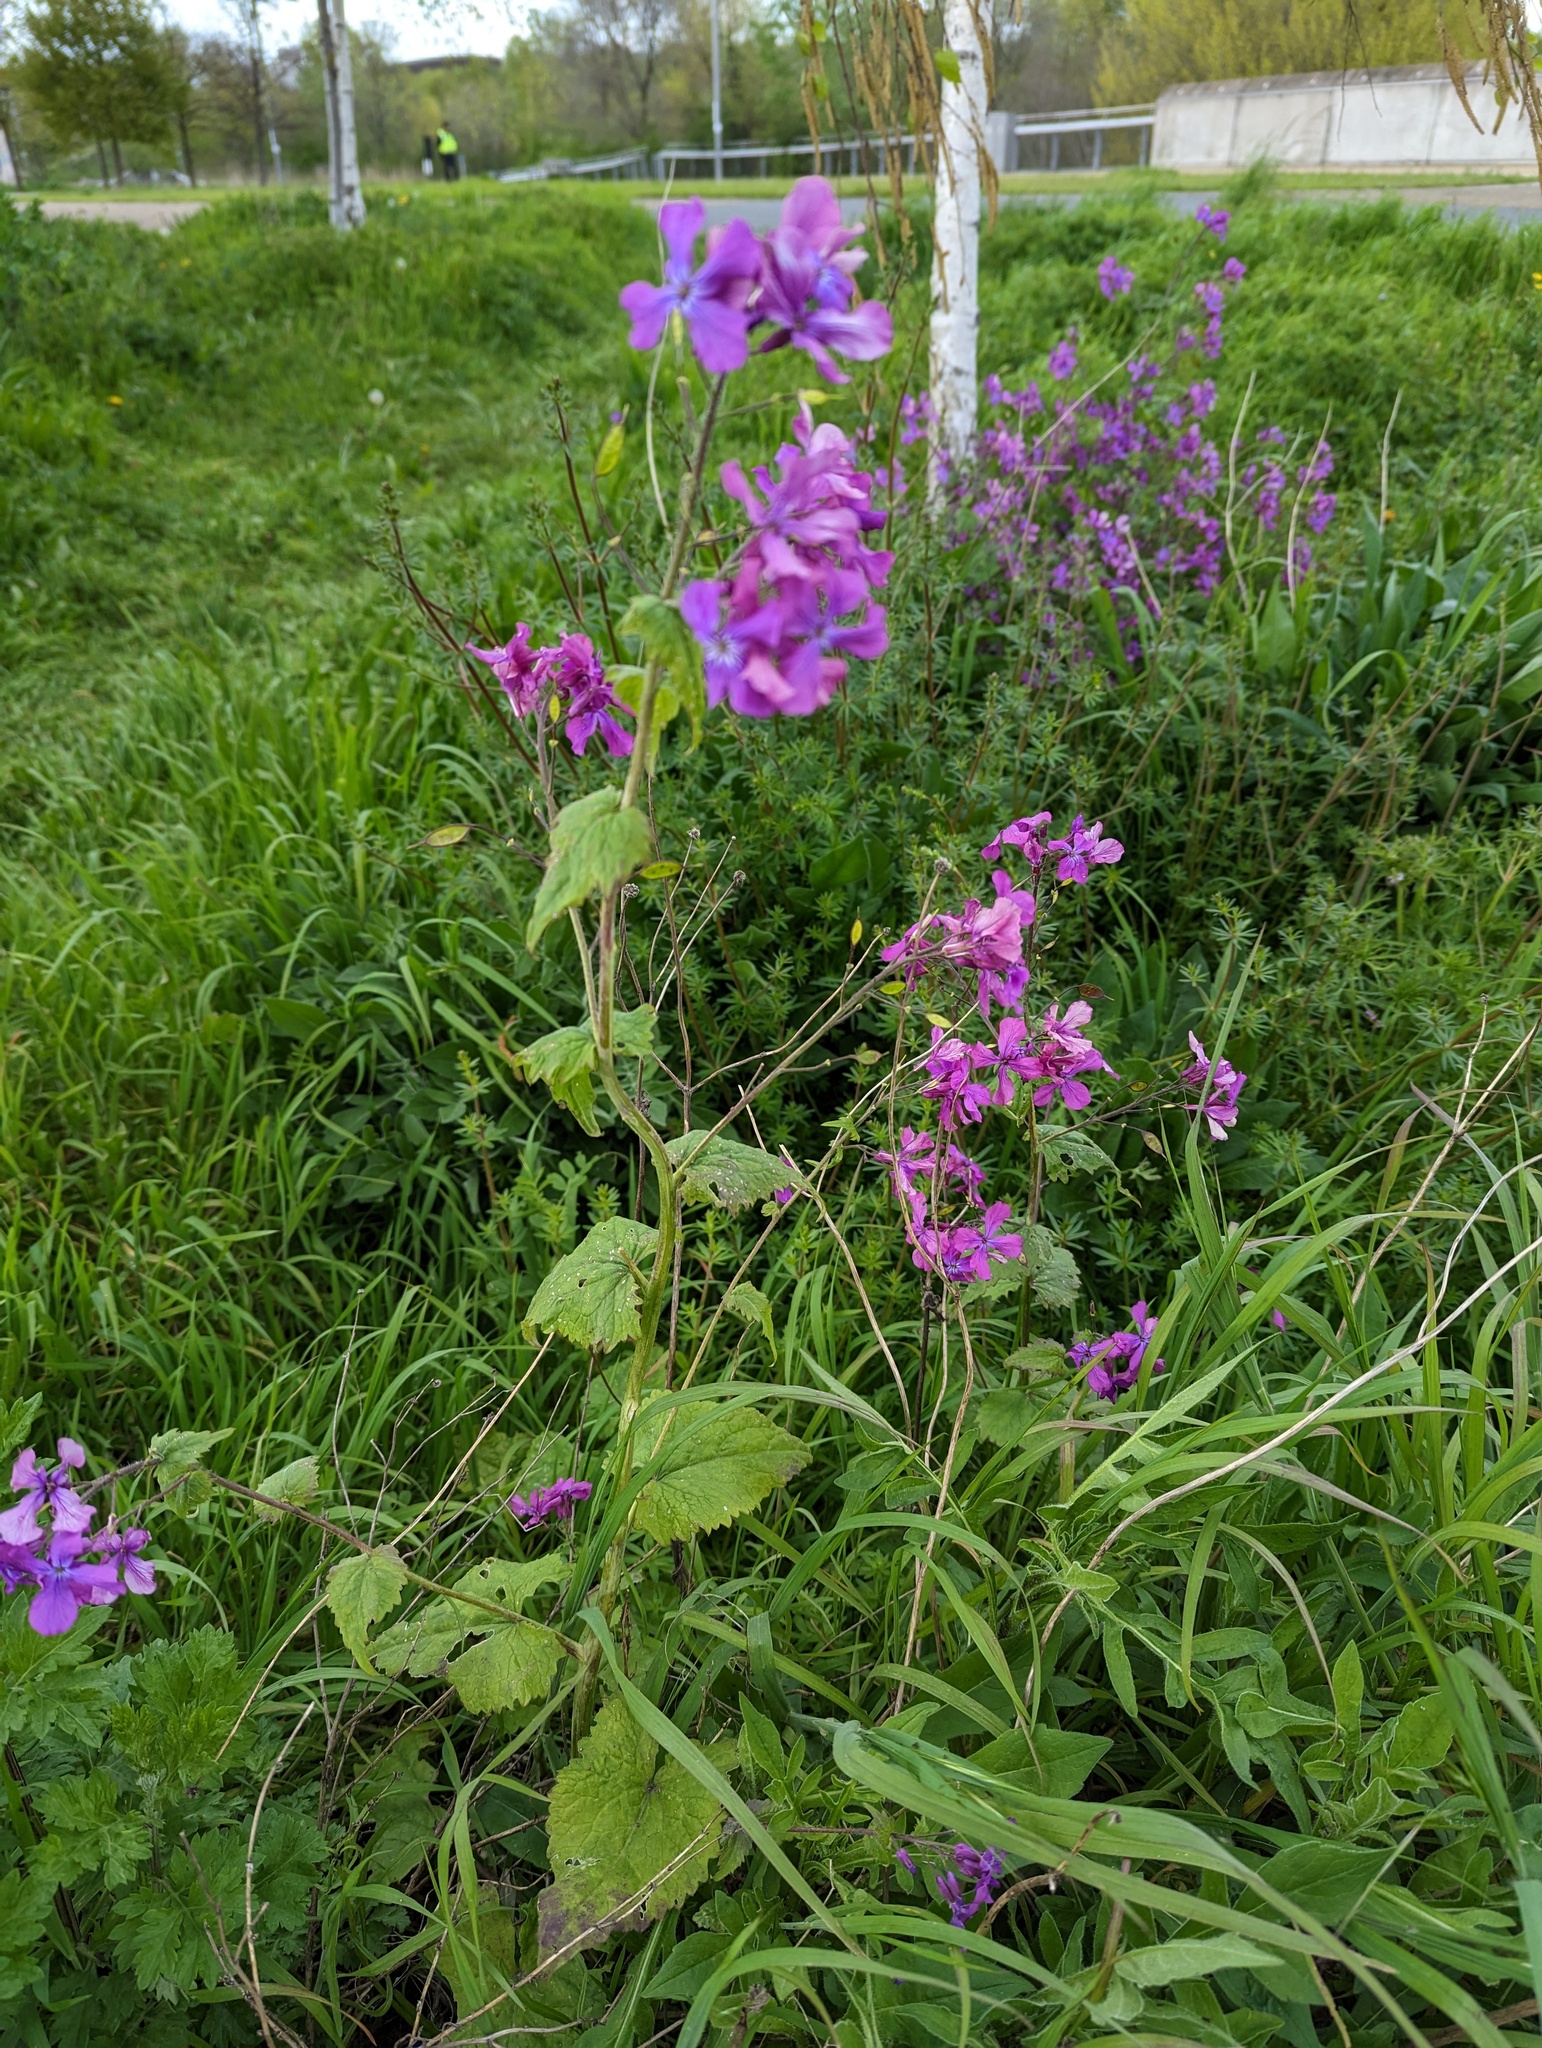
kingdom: Plantae
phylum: Tracheophyta
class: Magnoliopsida
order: Brassicales
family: Brassicaceae
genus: Lunaria
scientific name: Lunaria annua
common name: Honesty
